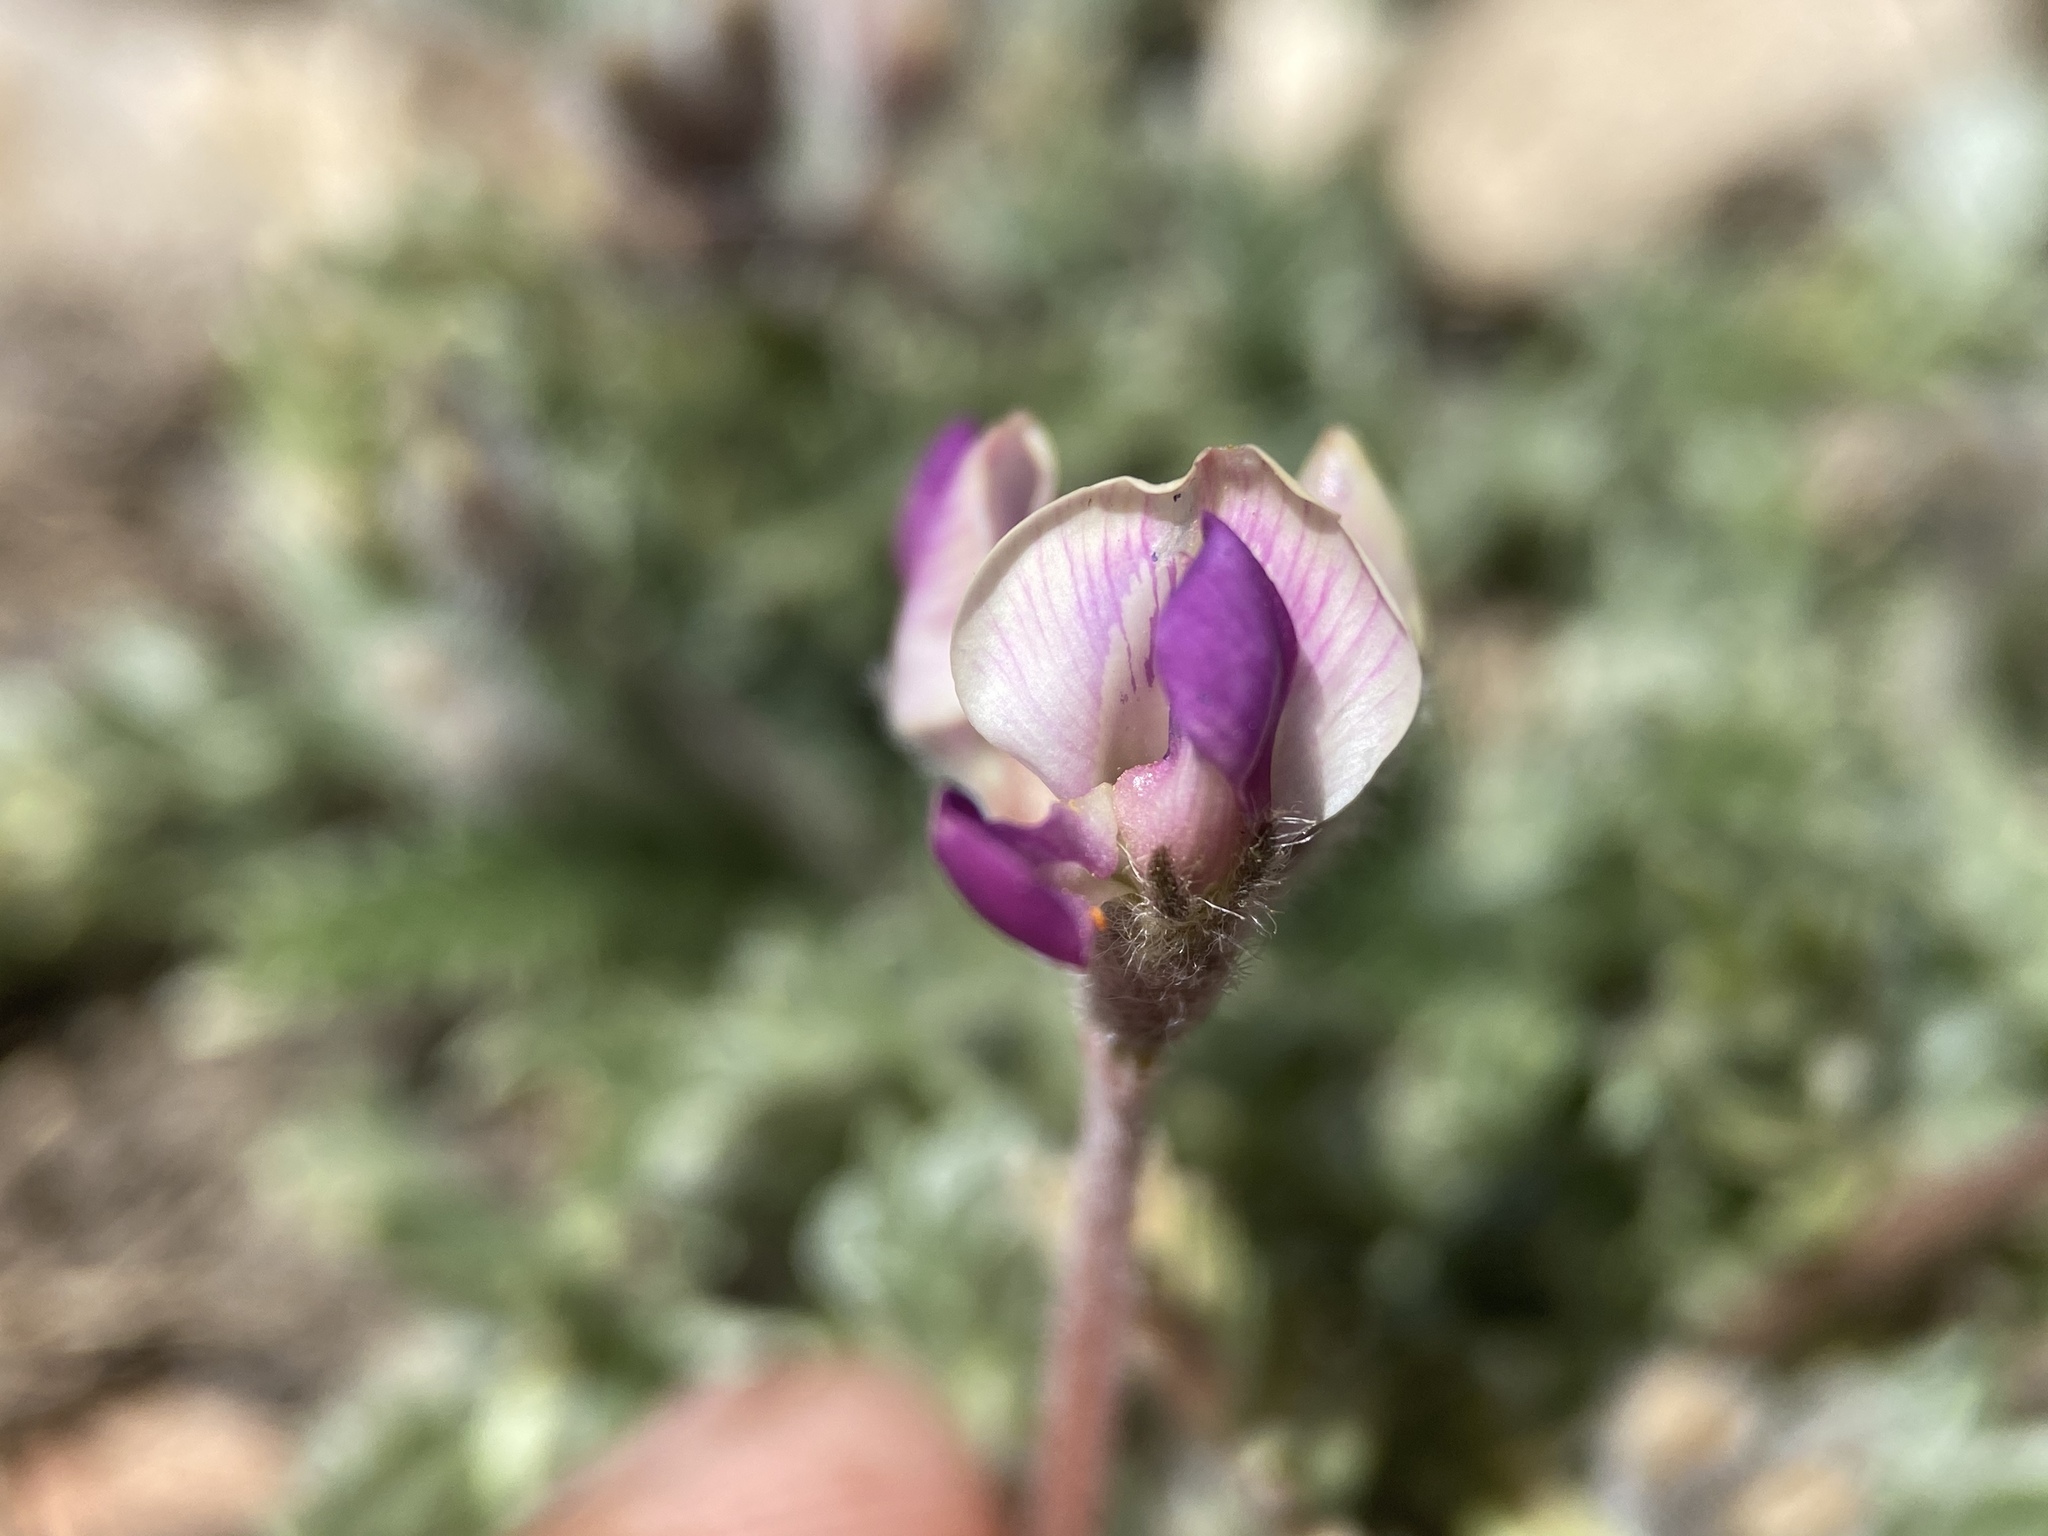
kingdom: Plantae
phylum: Tracheophyta
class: Magnoliopsida
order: Fabales
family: Fabaceae
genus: Oxytropis
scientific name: Oxytropis oreophila
